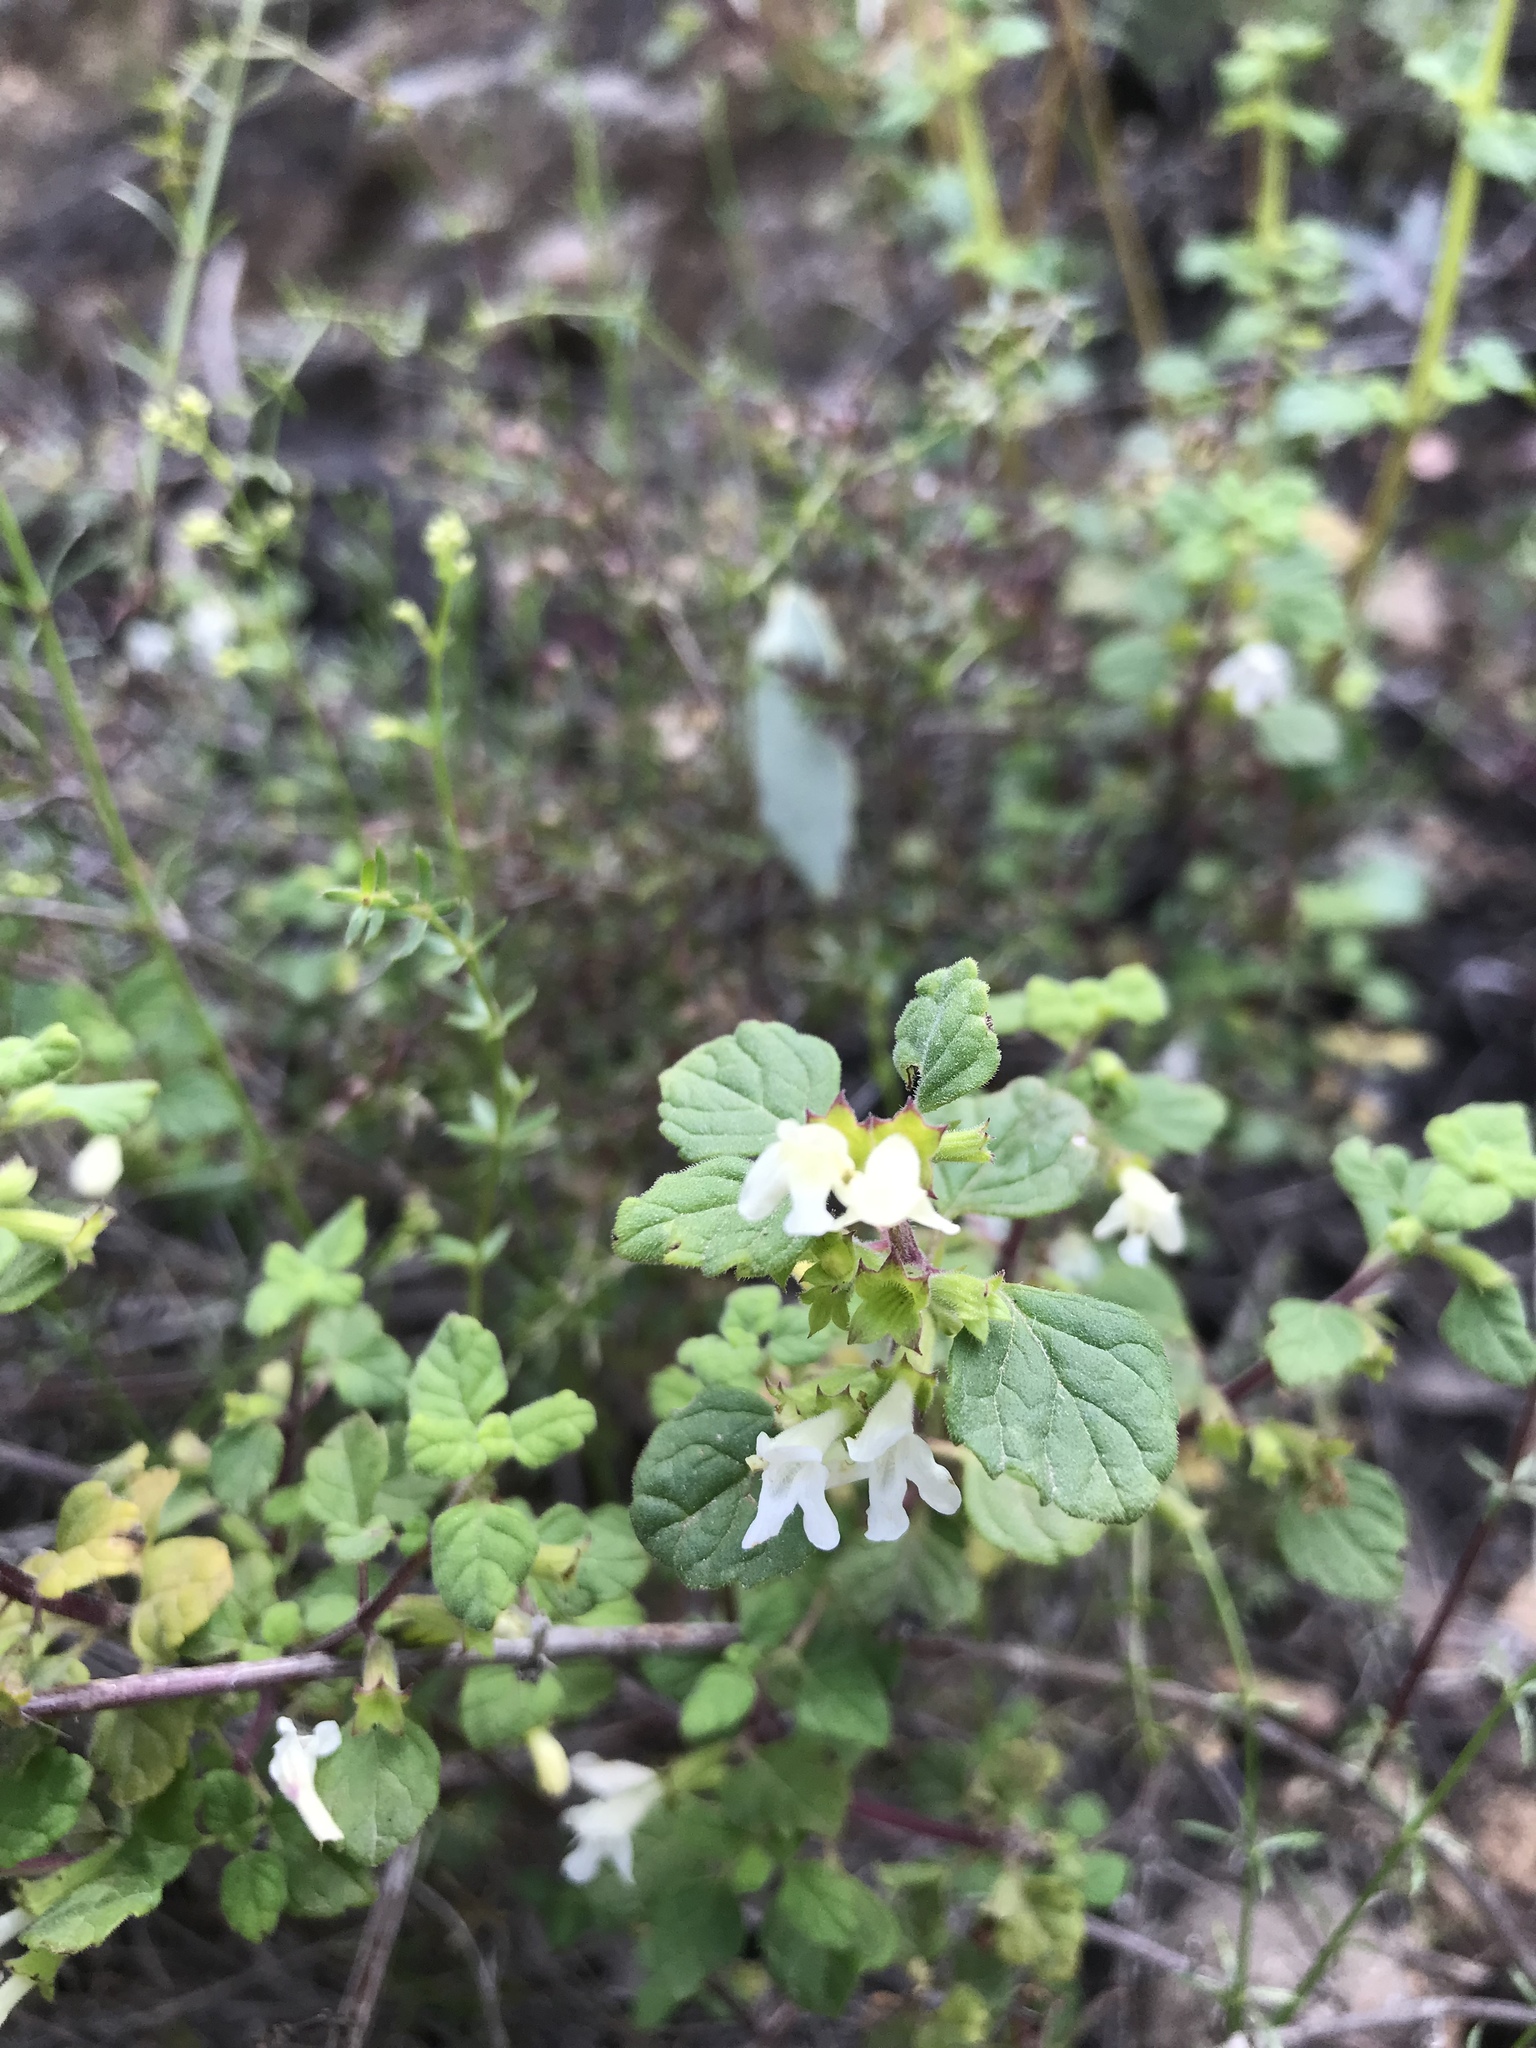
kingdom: Plantae
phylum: Tracheophyta
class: Magnoliopsida
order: Lamiales
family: Lamiaceae
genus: Clinopodium
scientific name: Clinopodium chandleri
